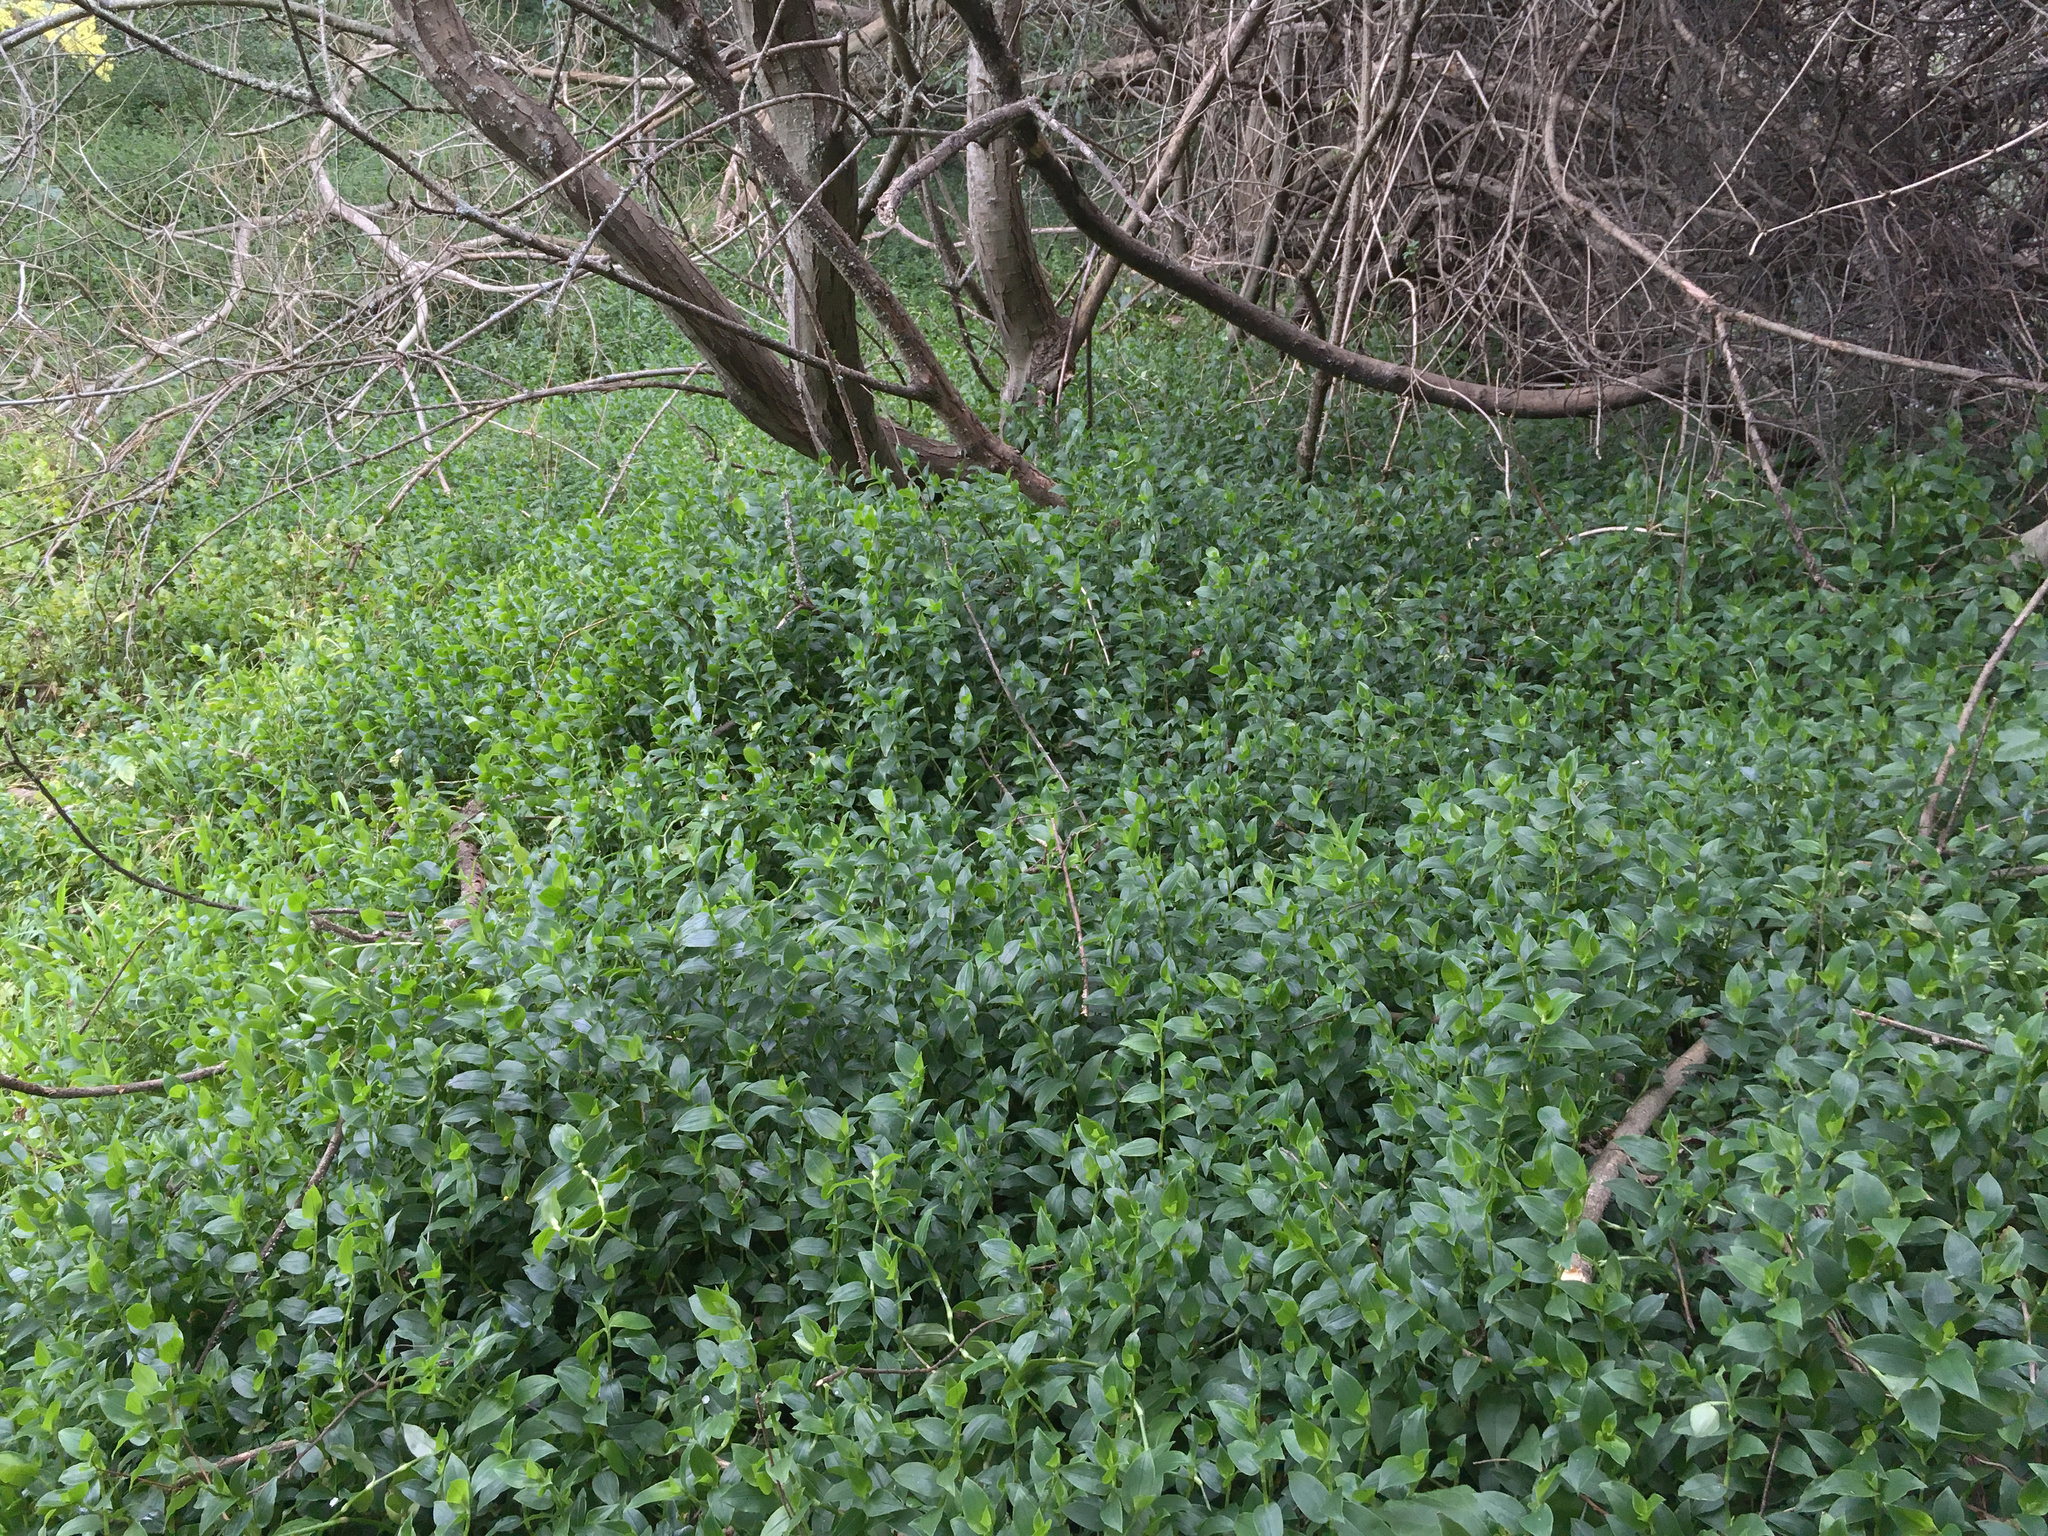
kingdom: Plantae
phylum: Tracheophyta
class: Liliopsida
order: Commelinales
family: Commelinaceae
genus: Tradescantia
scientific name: Tradescantia fluminensis
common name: Wandering-jew
